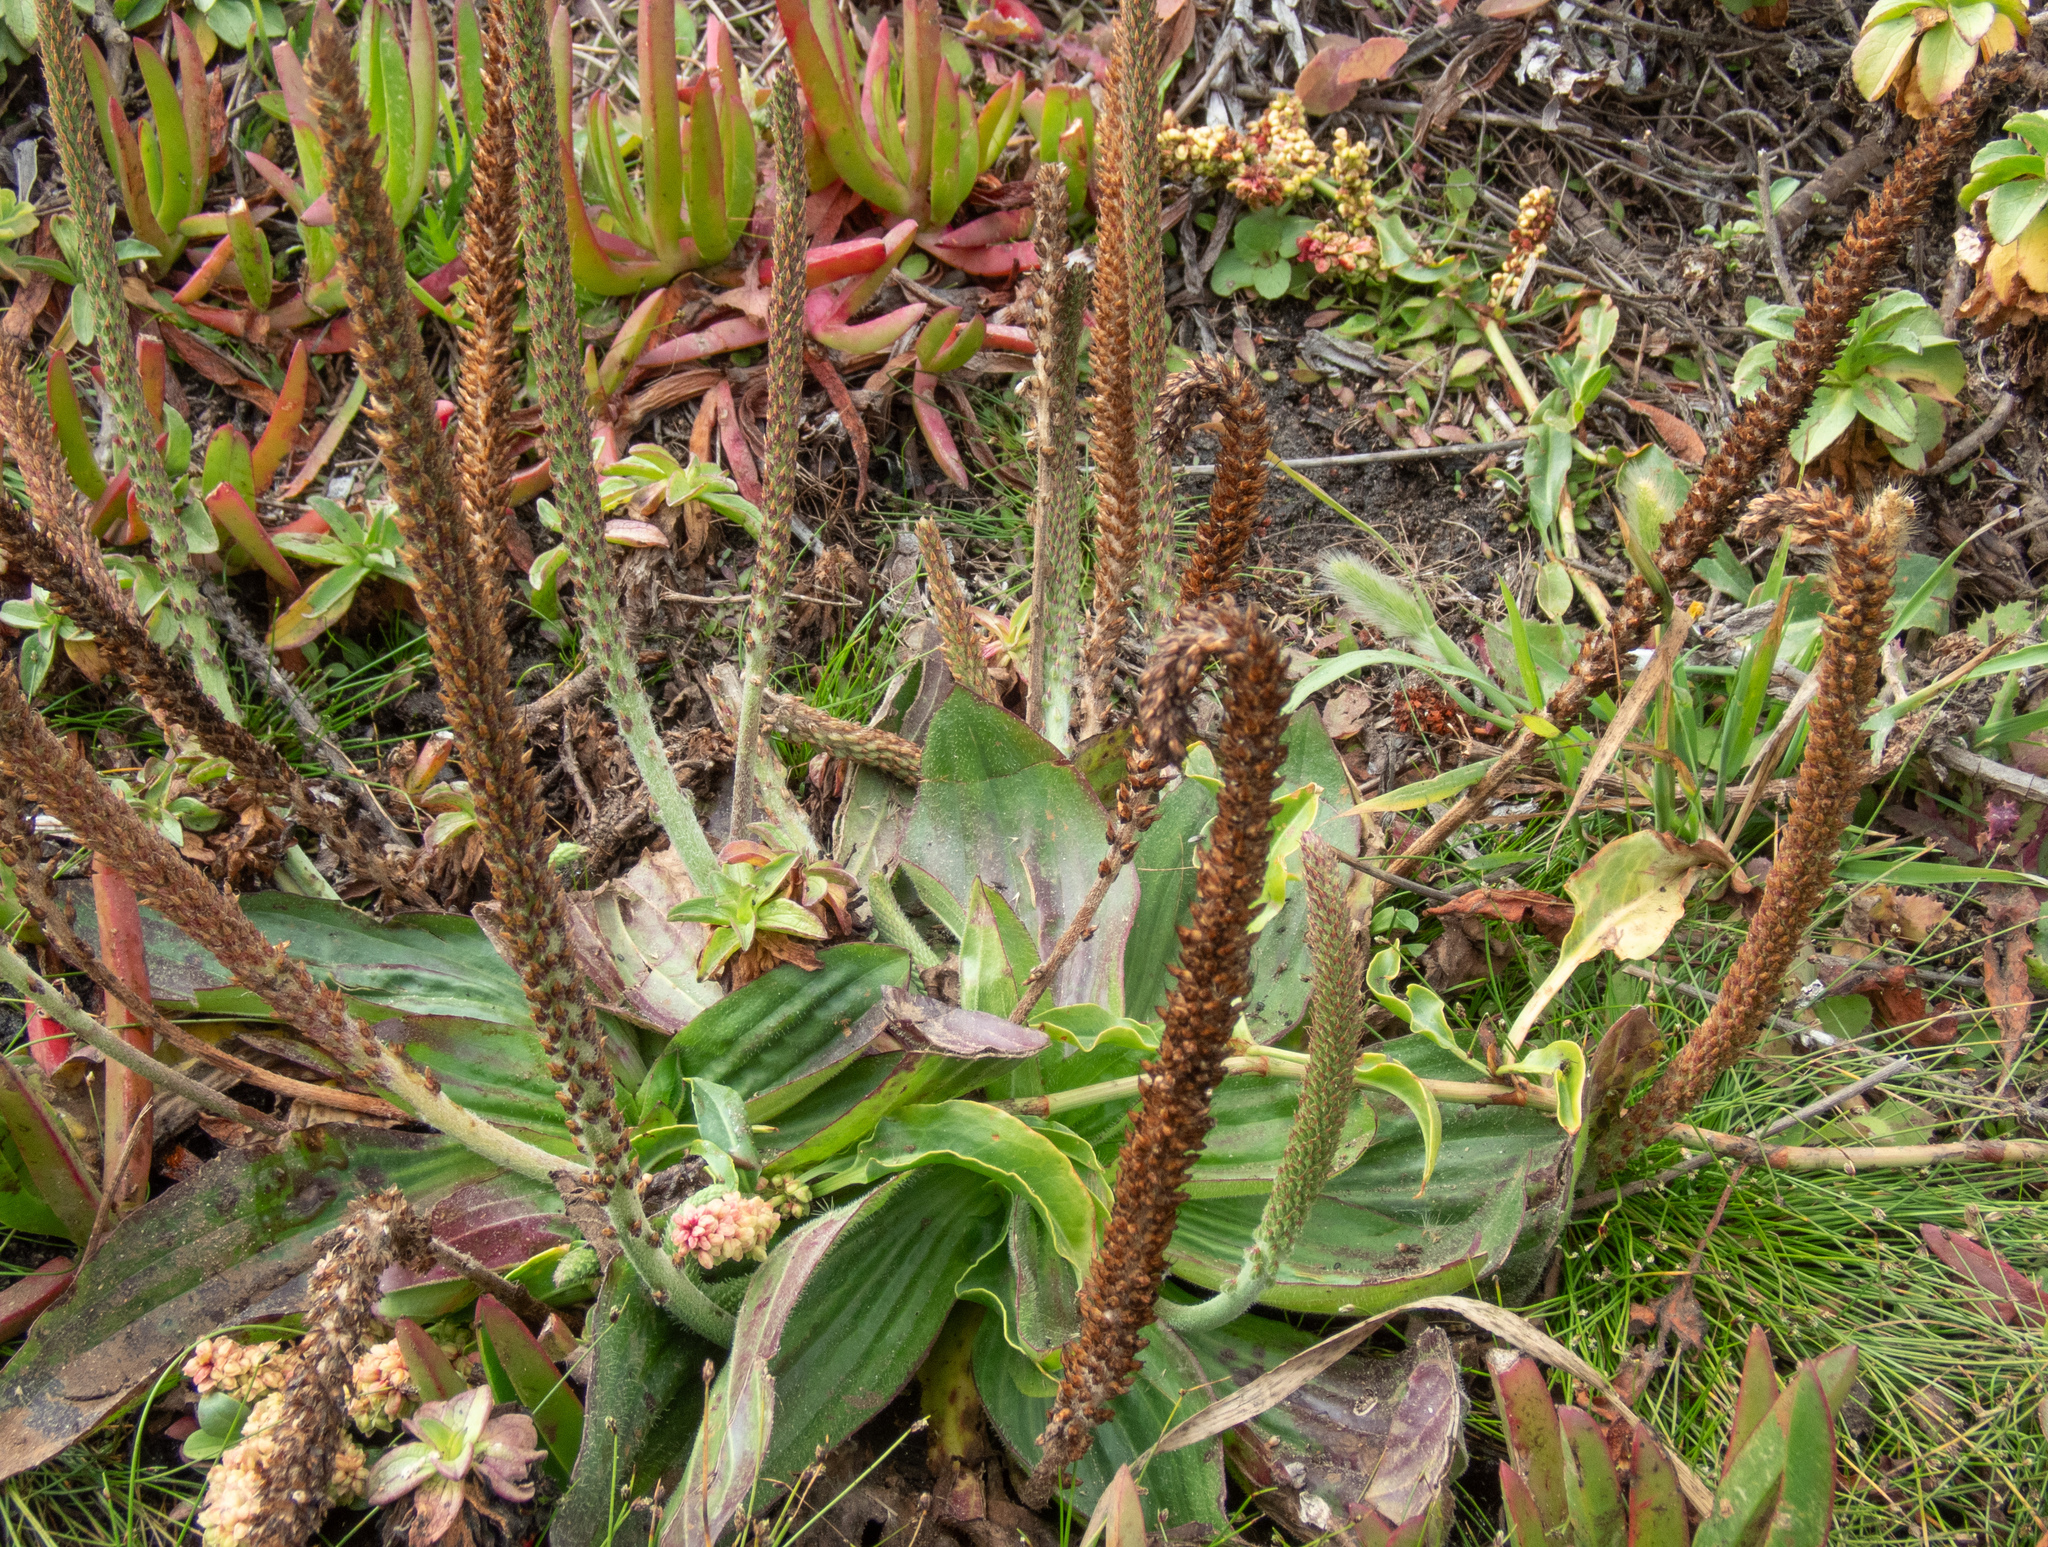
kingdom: Plantae
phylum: Tracheophyta
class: Magnoliopsida
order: Lamiales
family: Plantaginaceae
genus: Plantago
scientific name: Plantago subnuda
